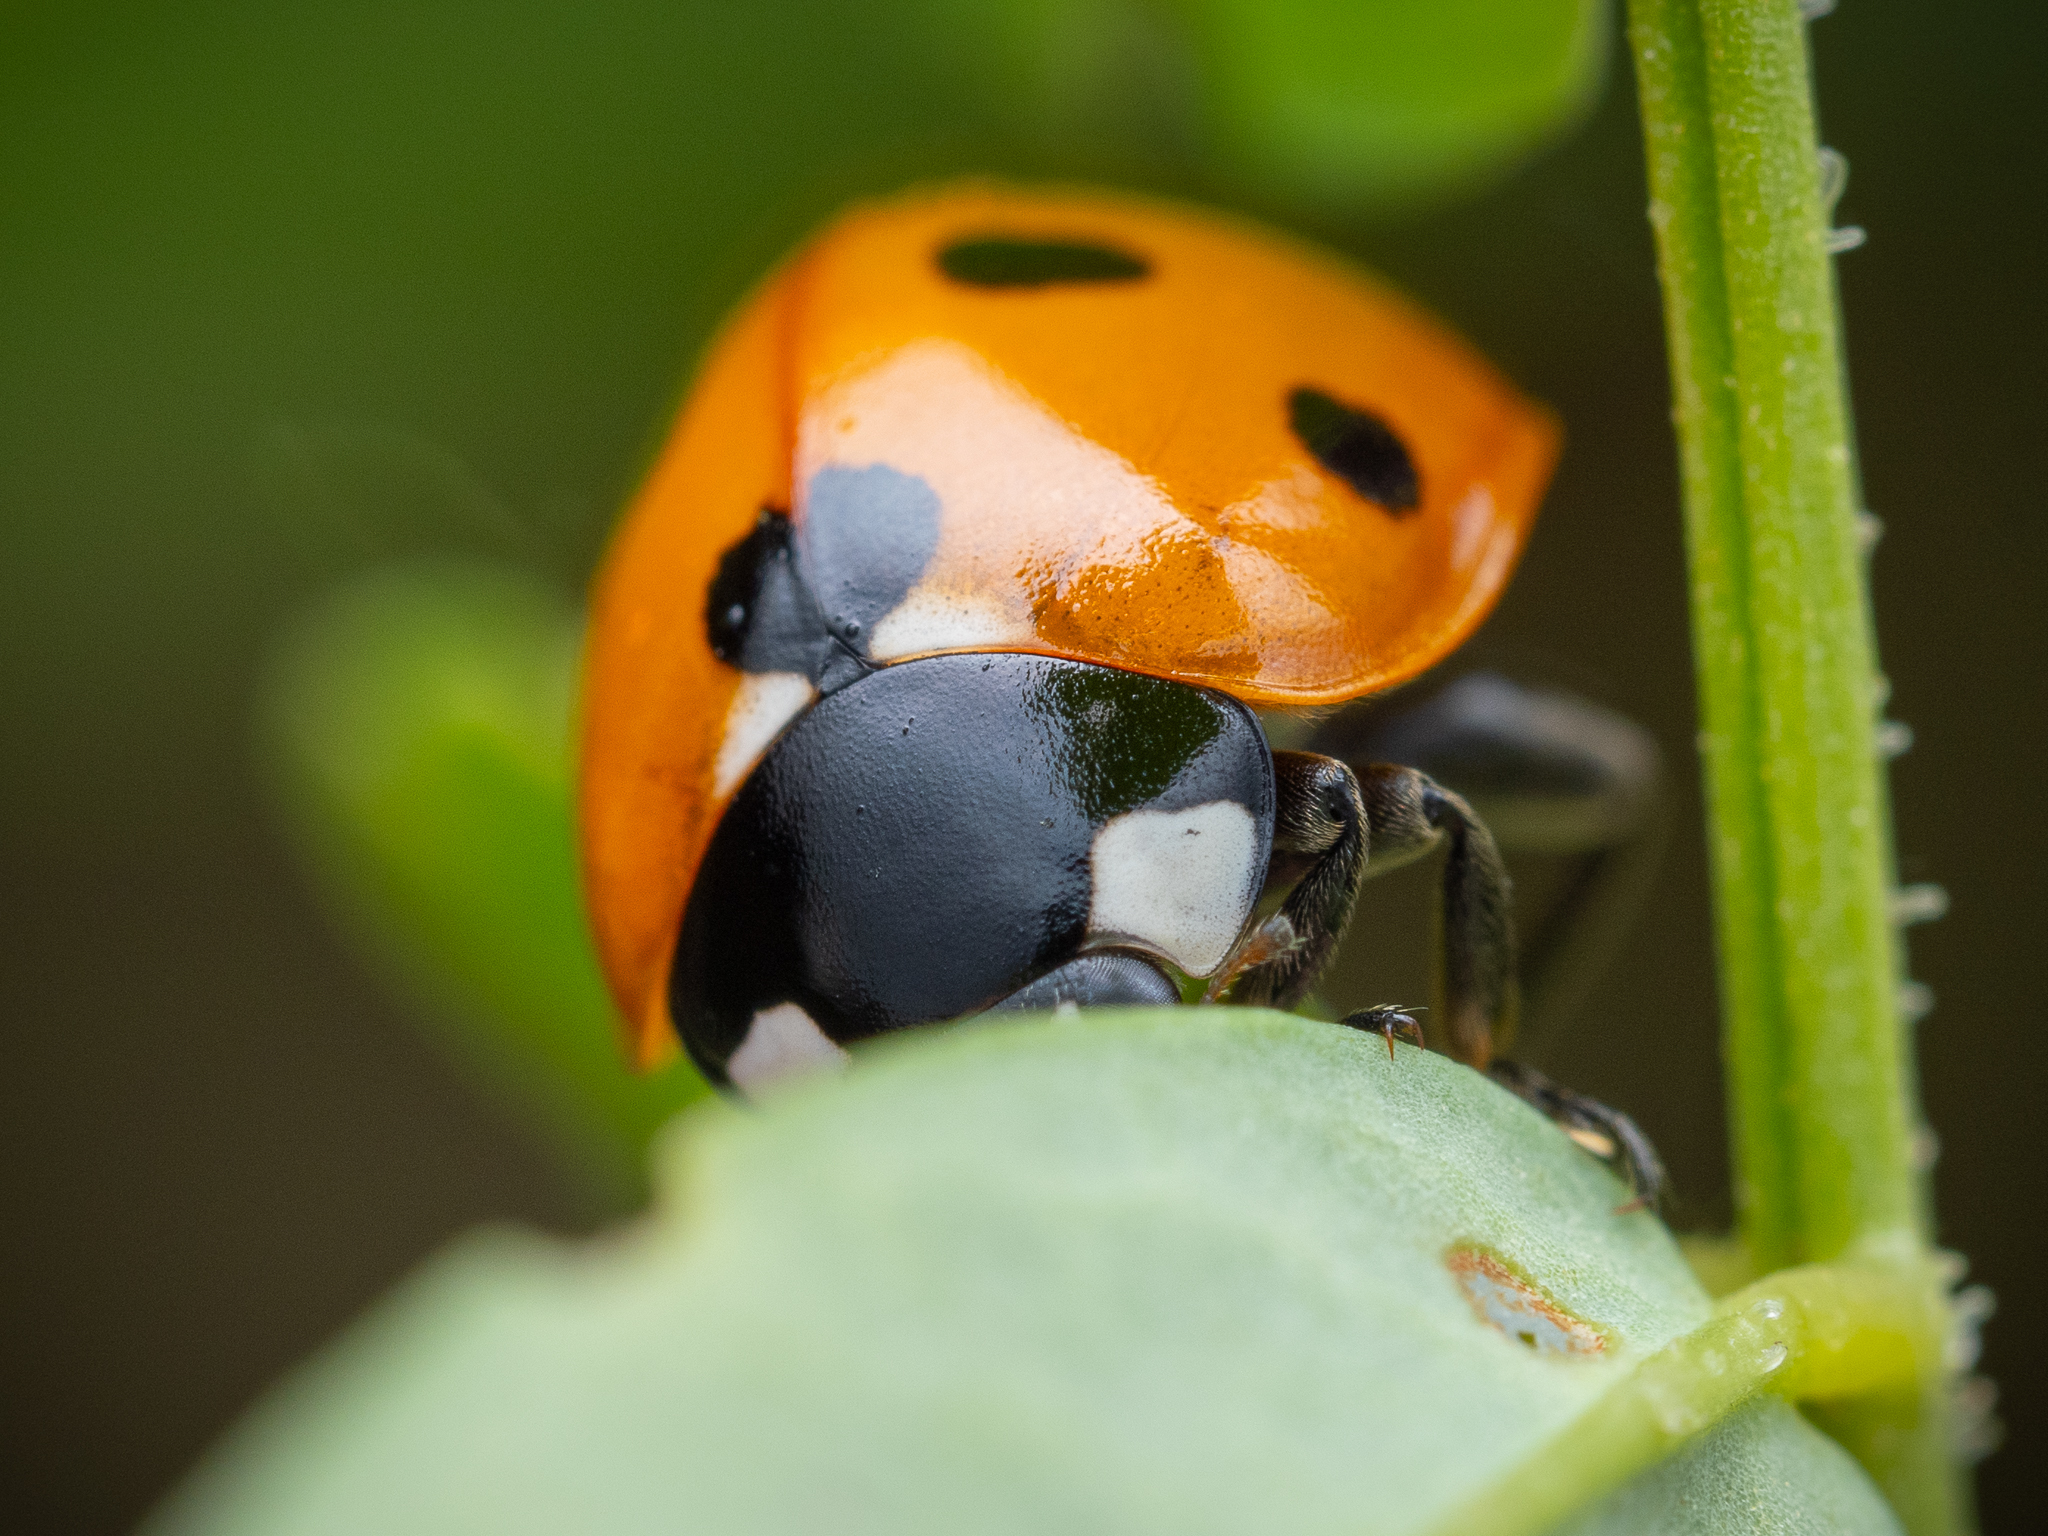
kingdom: Animalia
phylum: Arthropoda
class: Insecta
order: Coleoptera
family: Coccinellidae
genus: Coccinella
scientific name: Coccinella septempunctata
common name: Sevenspotted lady beetle
